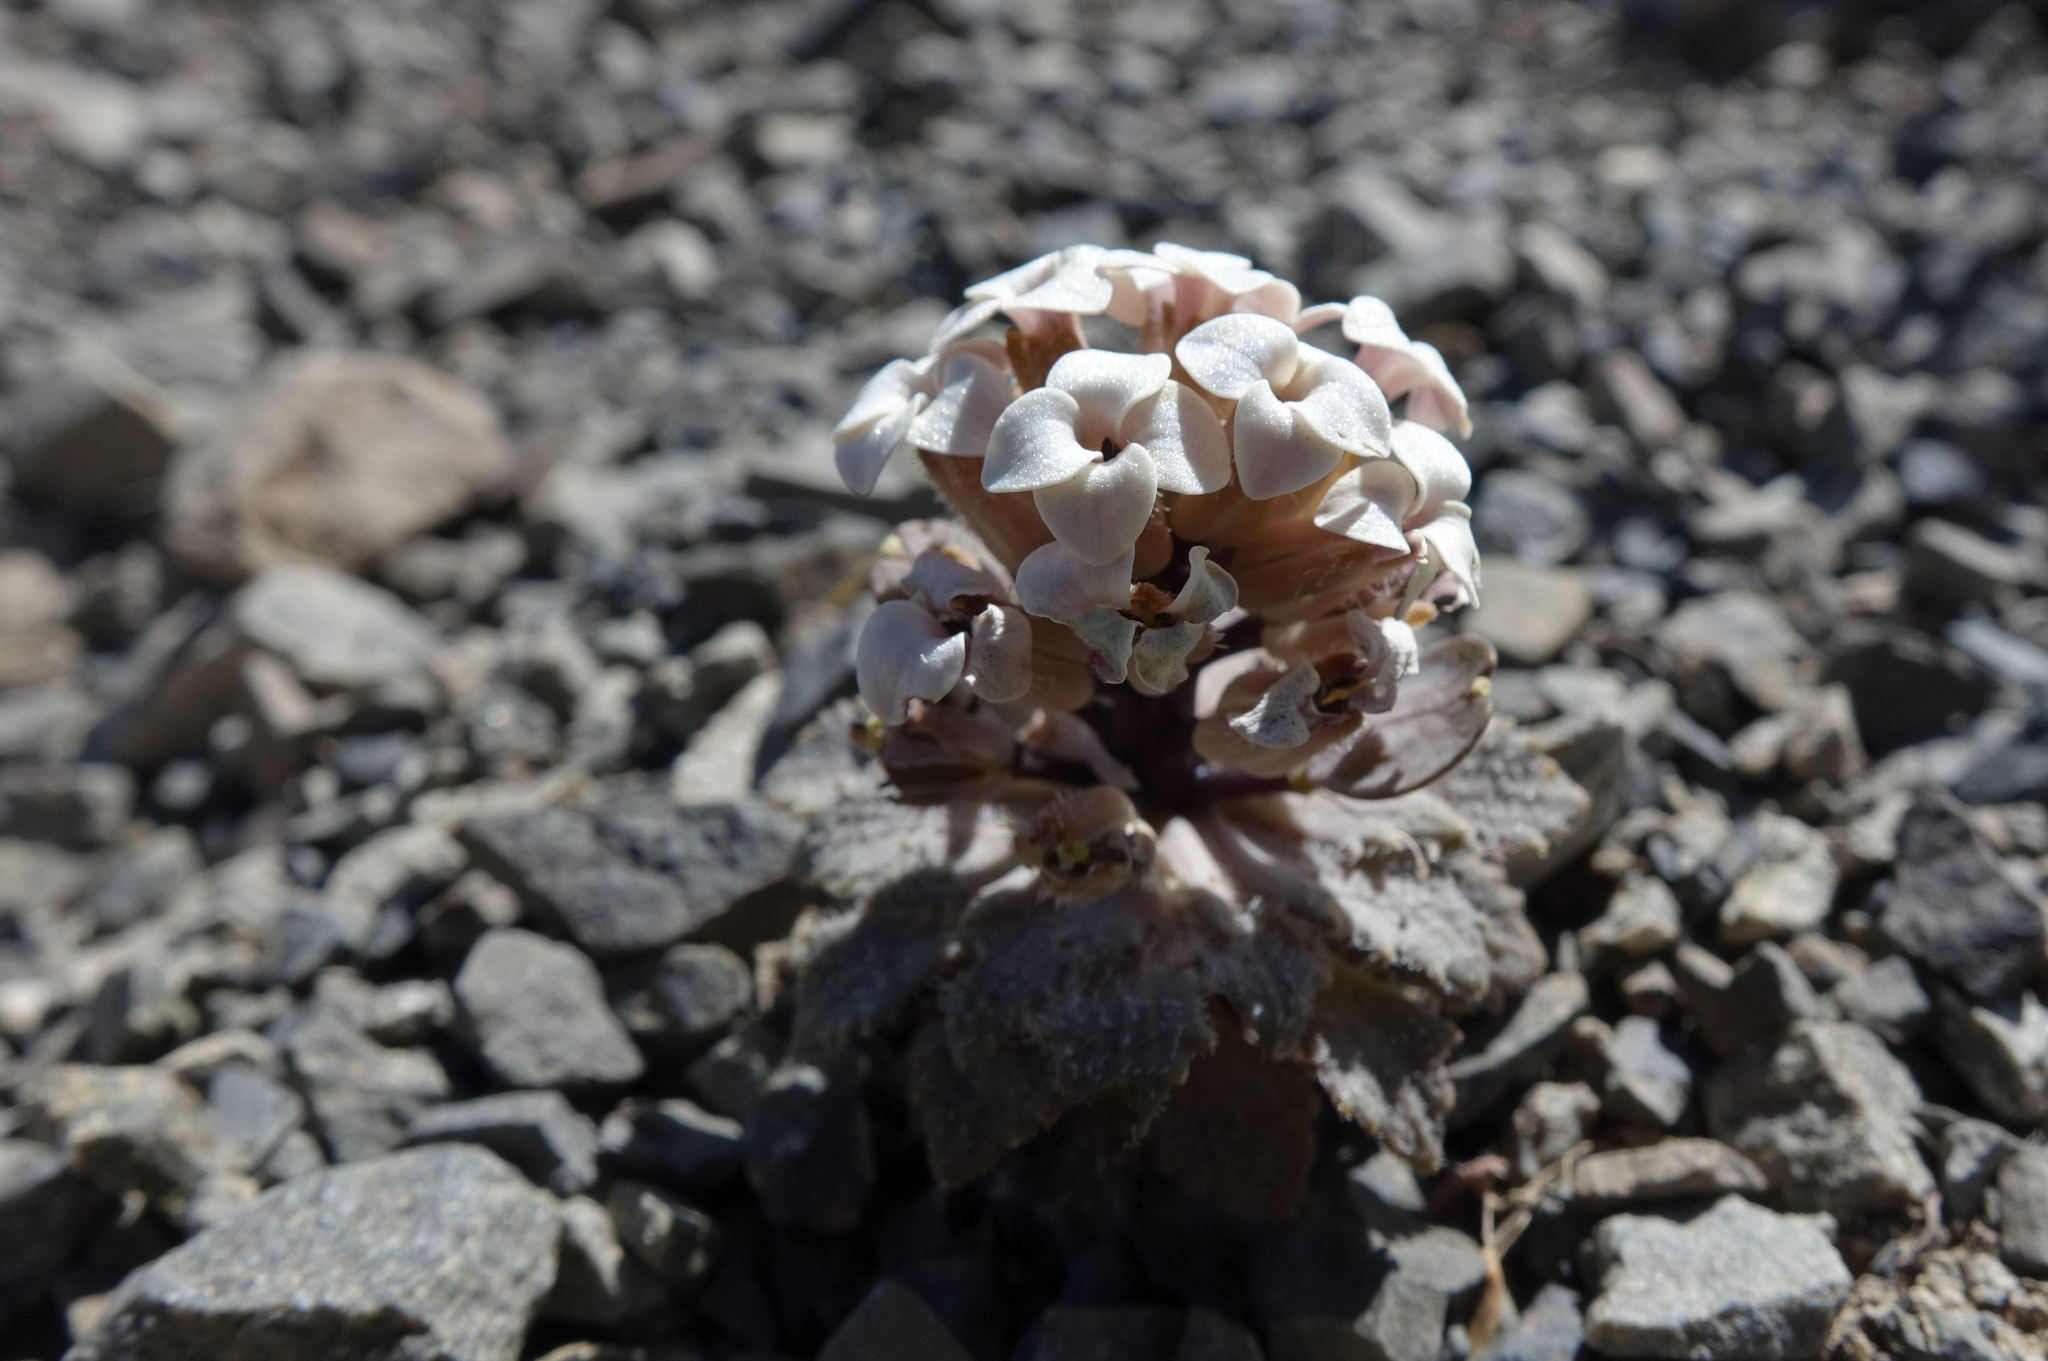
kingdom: Plantae
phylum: Tracheophyta
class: Magnoliopsida
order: Brassicales
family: Brassicaceae
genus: Notothlaspi
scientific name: Notothlaspi rosulatum
